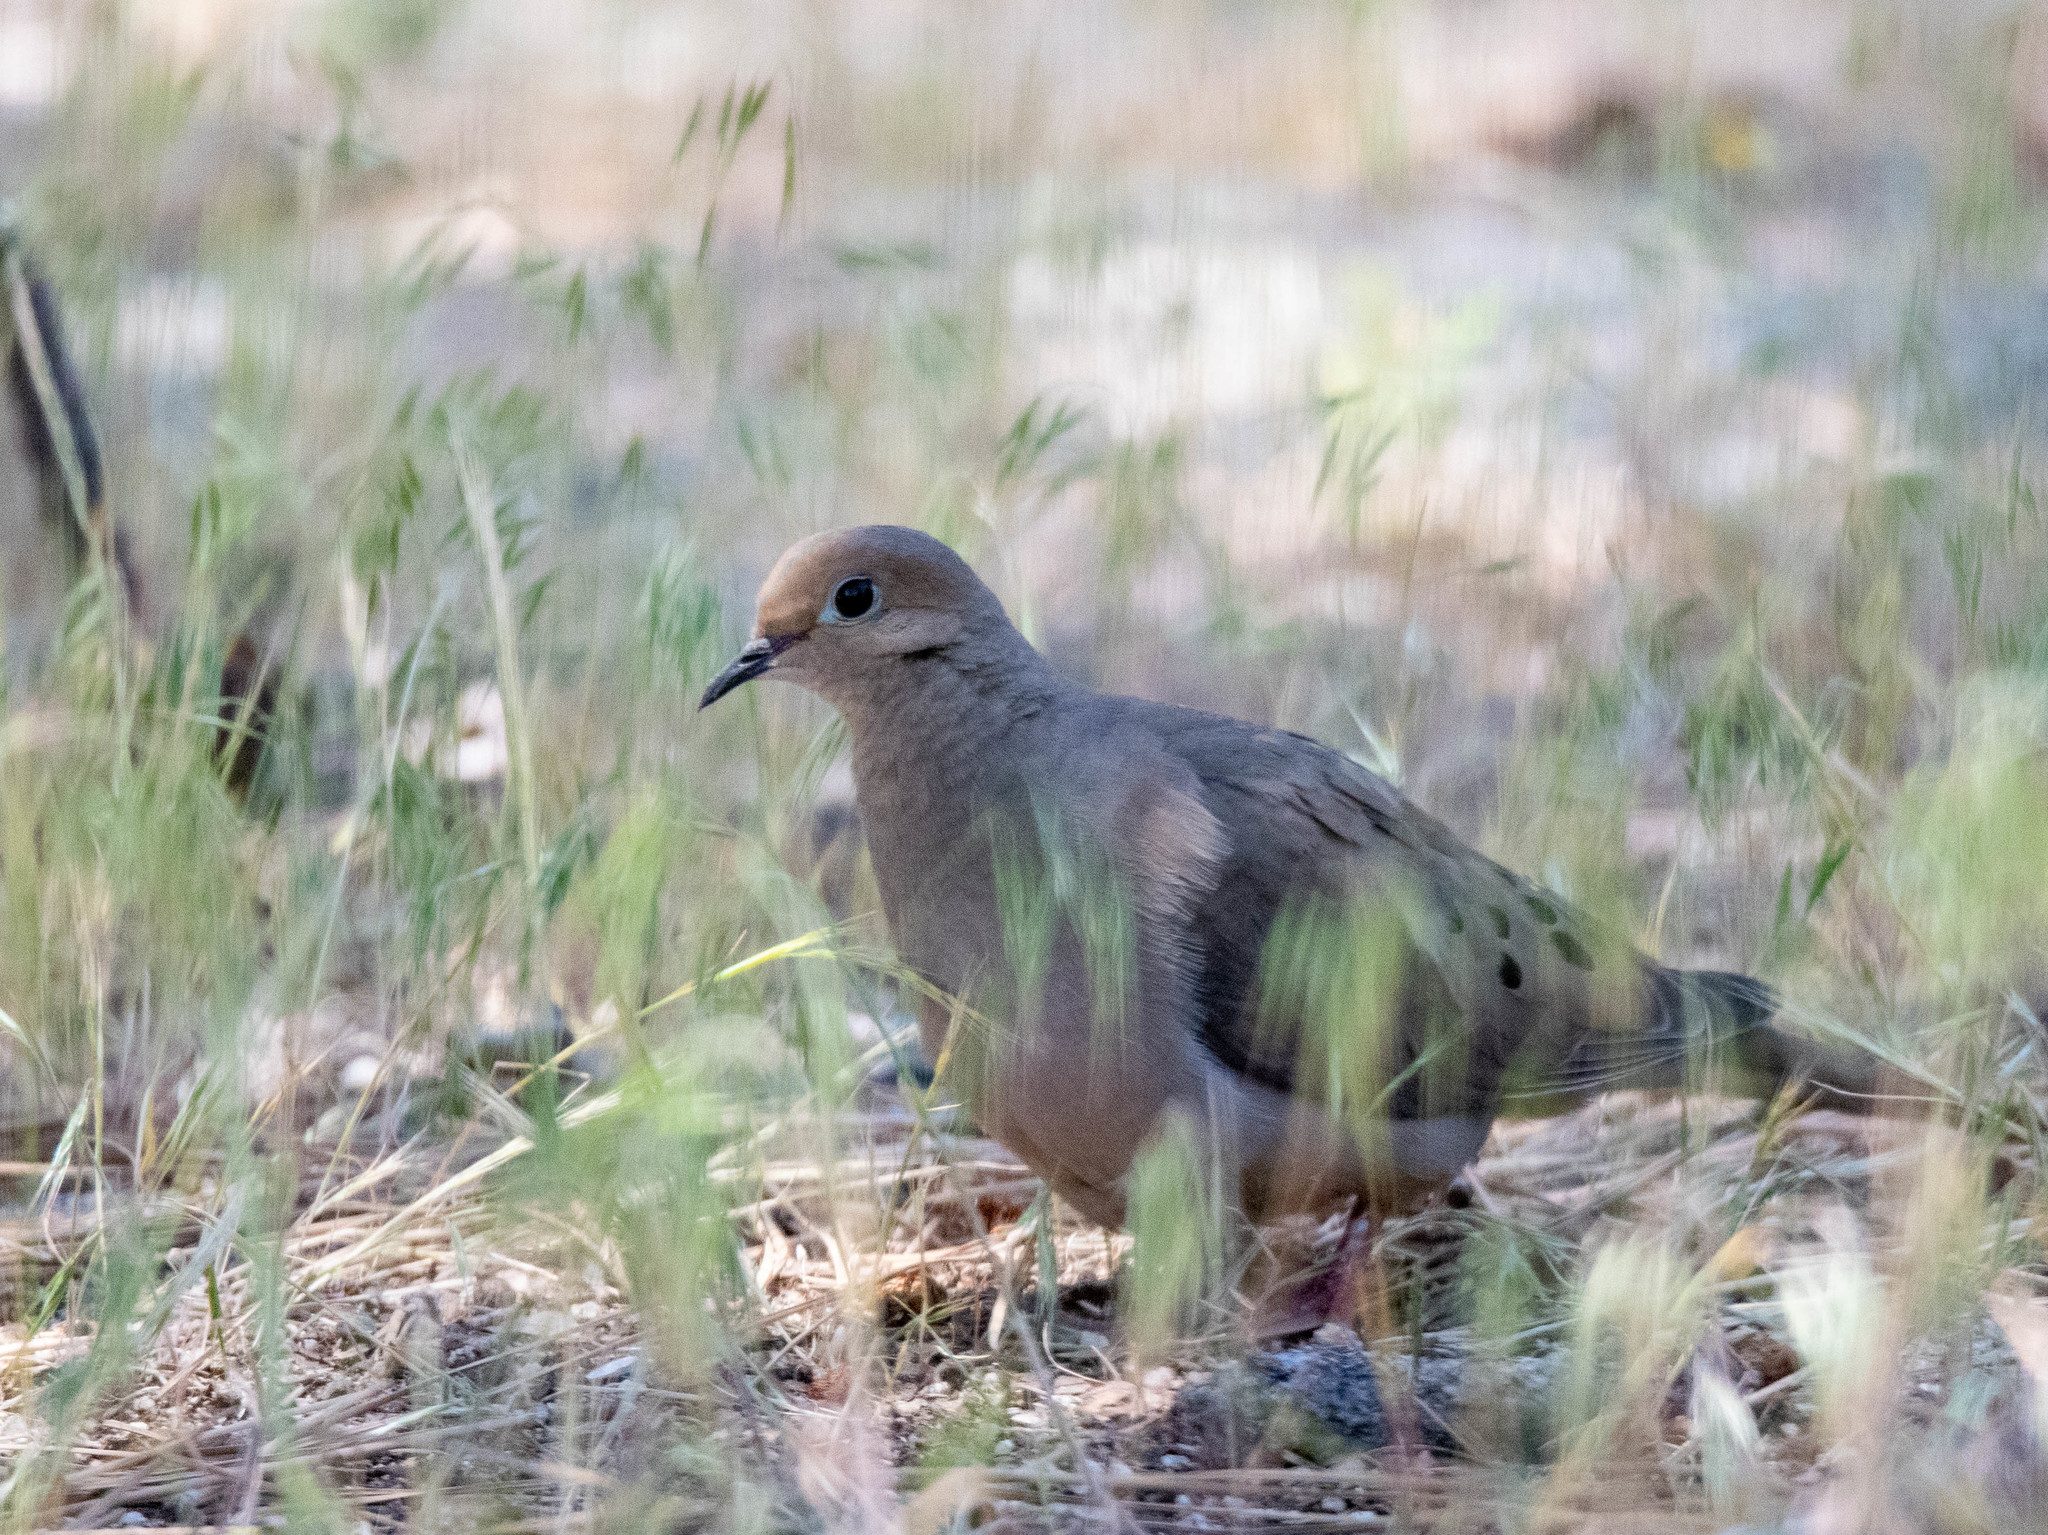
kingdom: Animalia
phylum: Chordata
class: Aves
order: Columbiformes
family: Columbidae
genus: Zenaida
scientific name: Zenaida macroura
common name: Mourning dove
